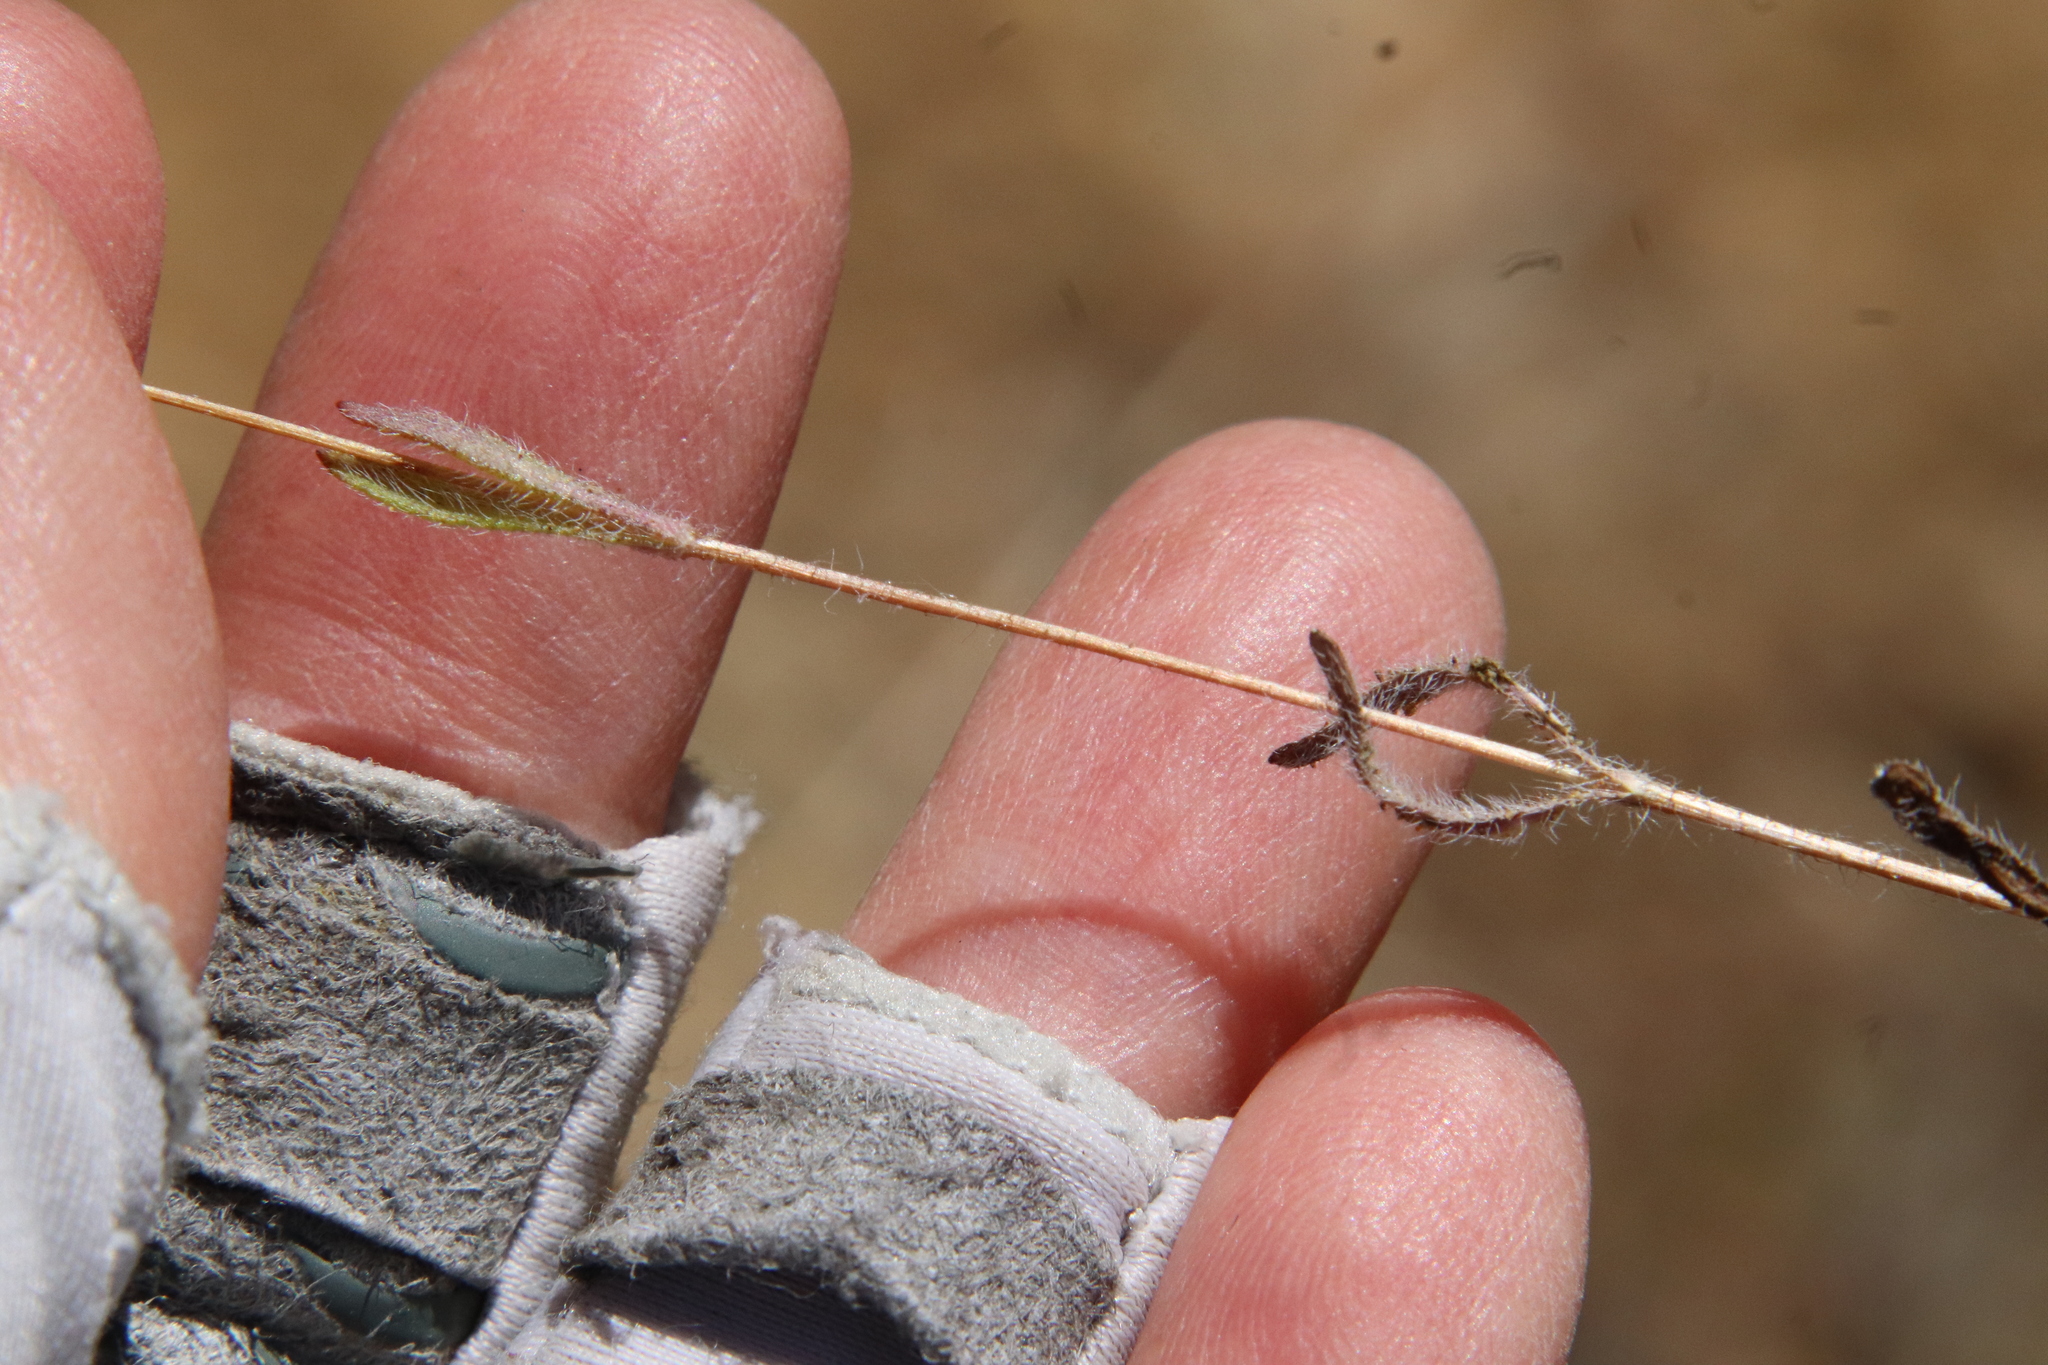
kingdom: Plantae
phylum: Tracheophyta
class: Magnoliopsida
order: Asterales
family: Asteraceae
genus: Deinandra
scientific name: Deinandra fasciculata
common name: Clustered tarweed
